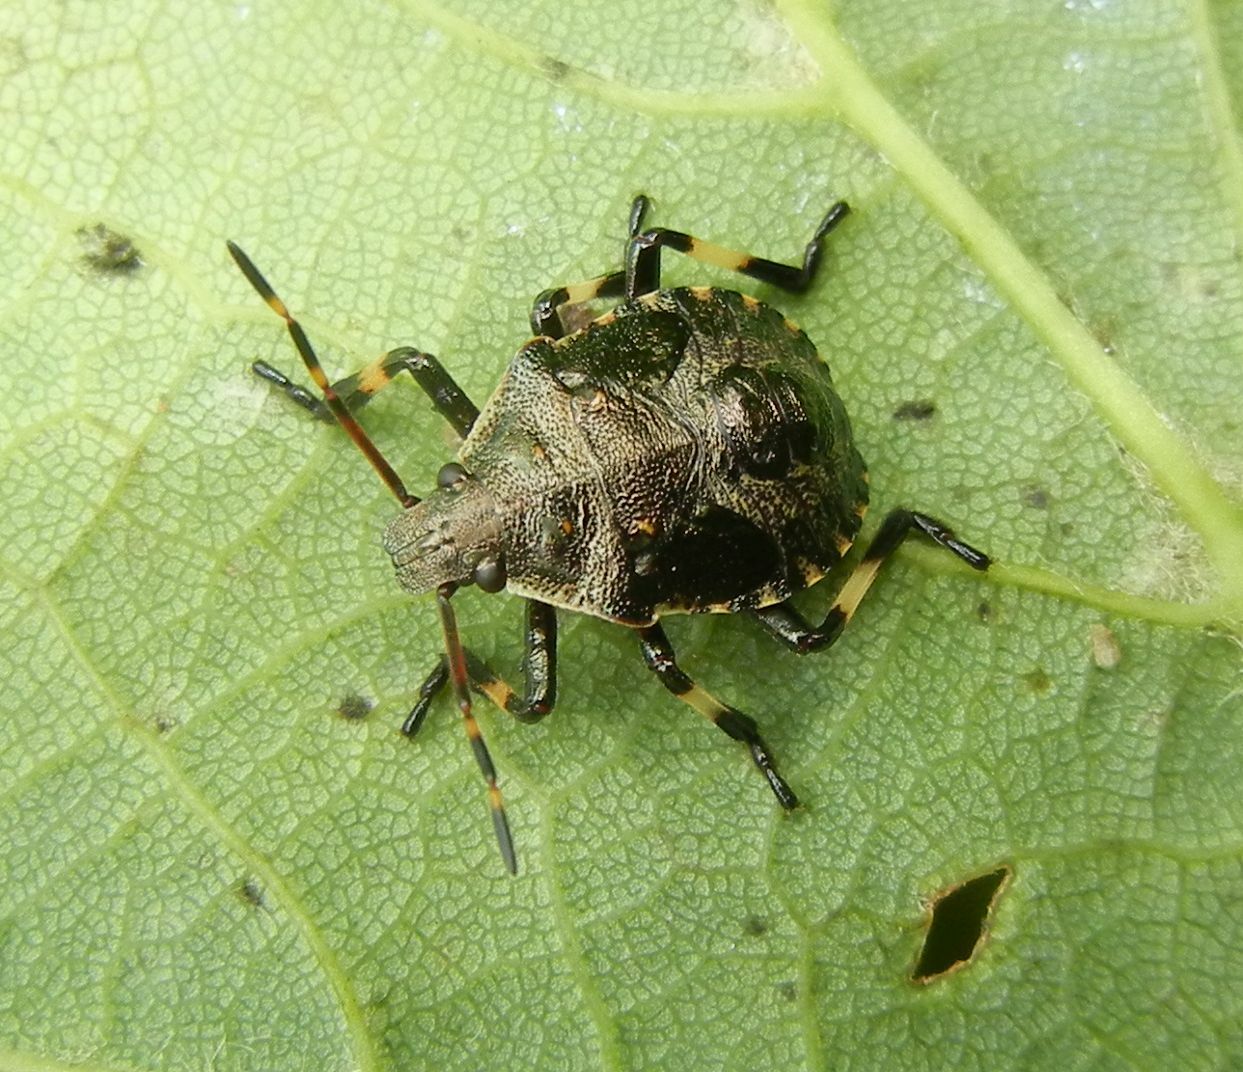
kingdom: Animalia
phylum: Arthropoda
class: Insecta
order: Hemiptera
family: Pentatomidae
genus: Picromerus
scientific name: Picromerus bidens
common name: Spiked shieldbug
